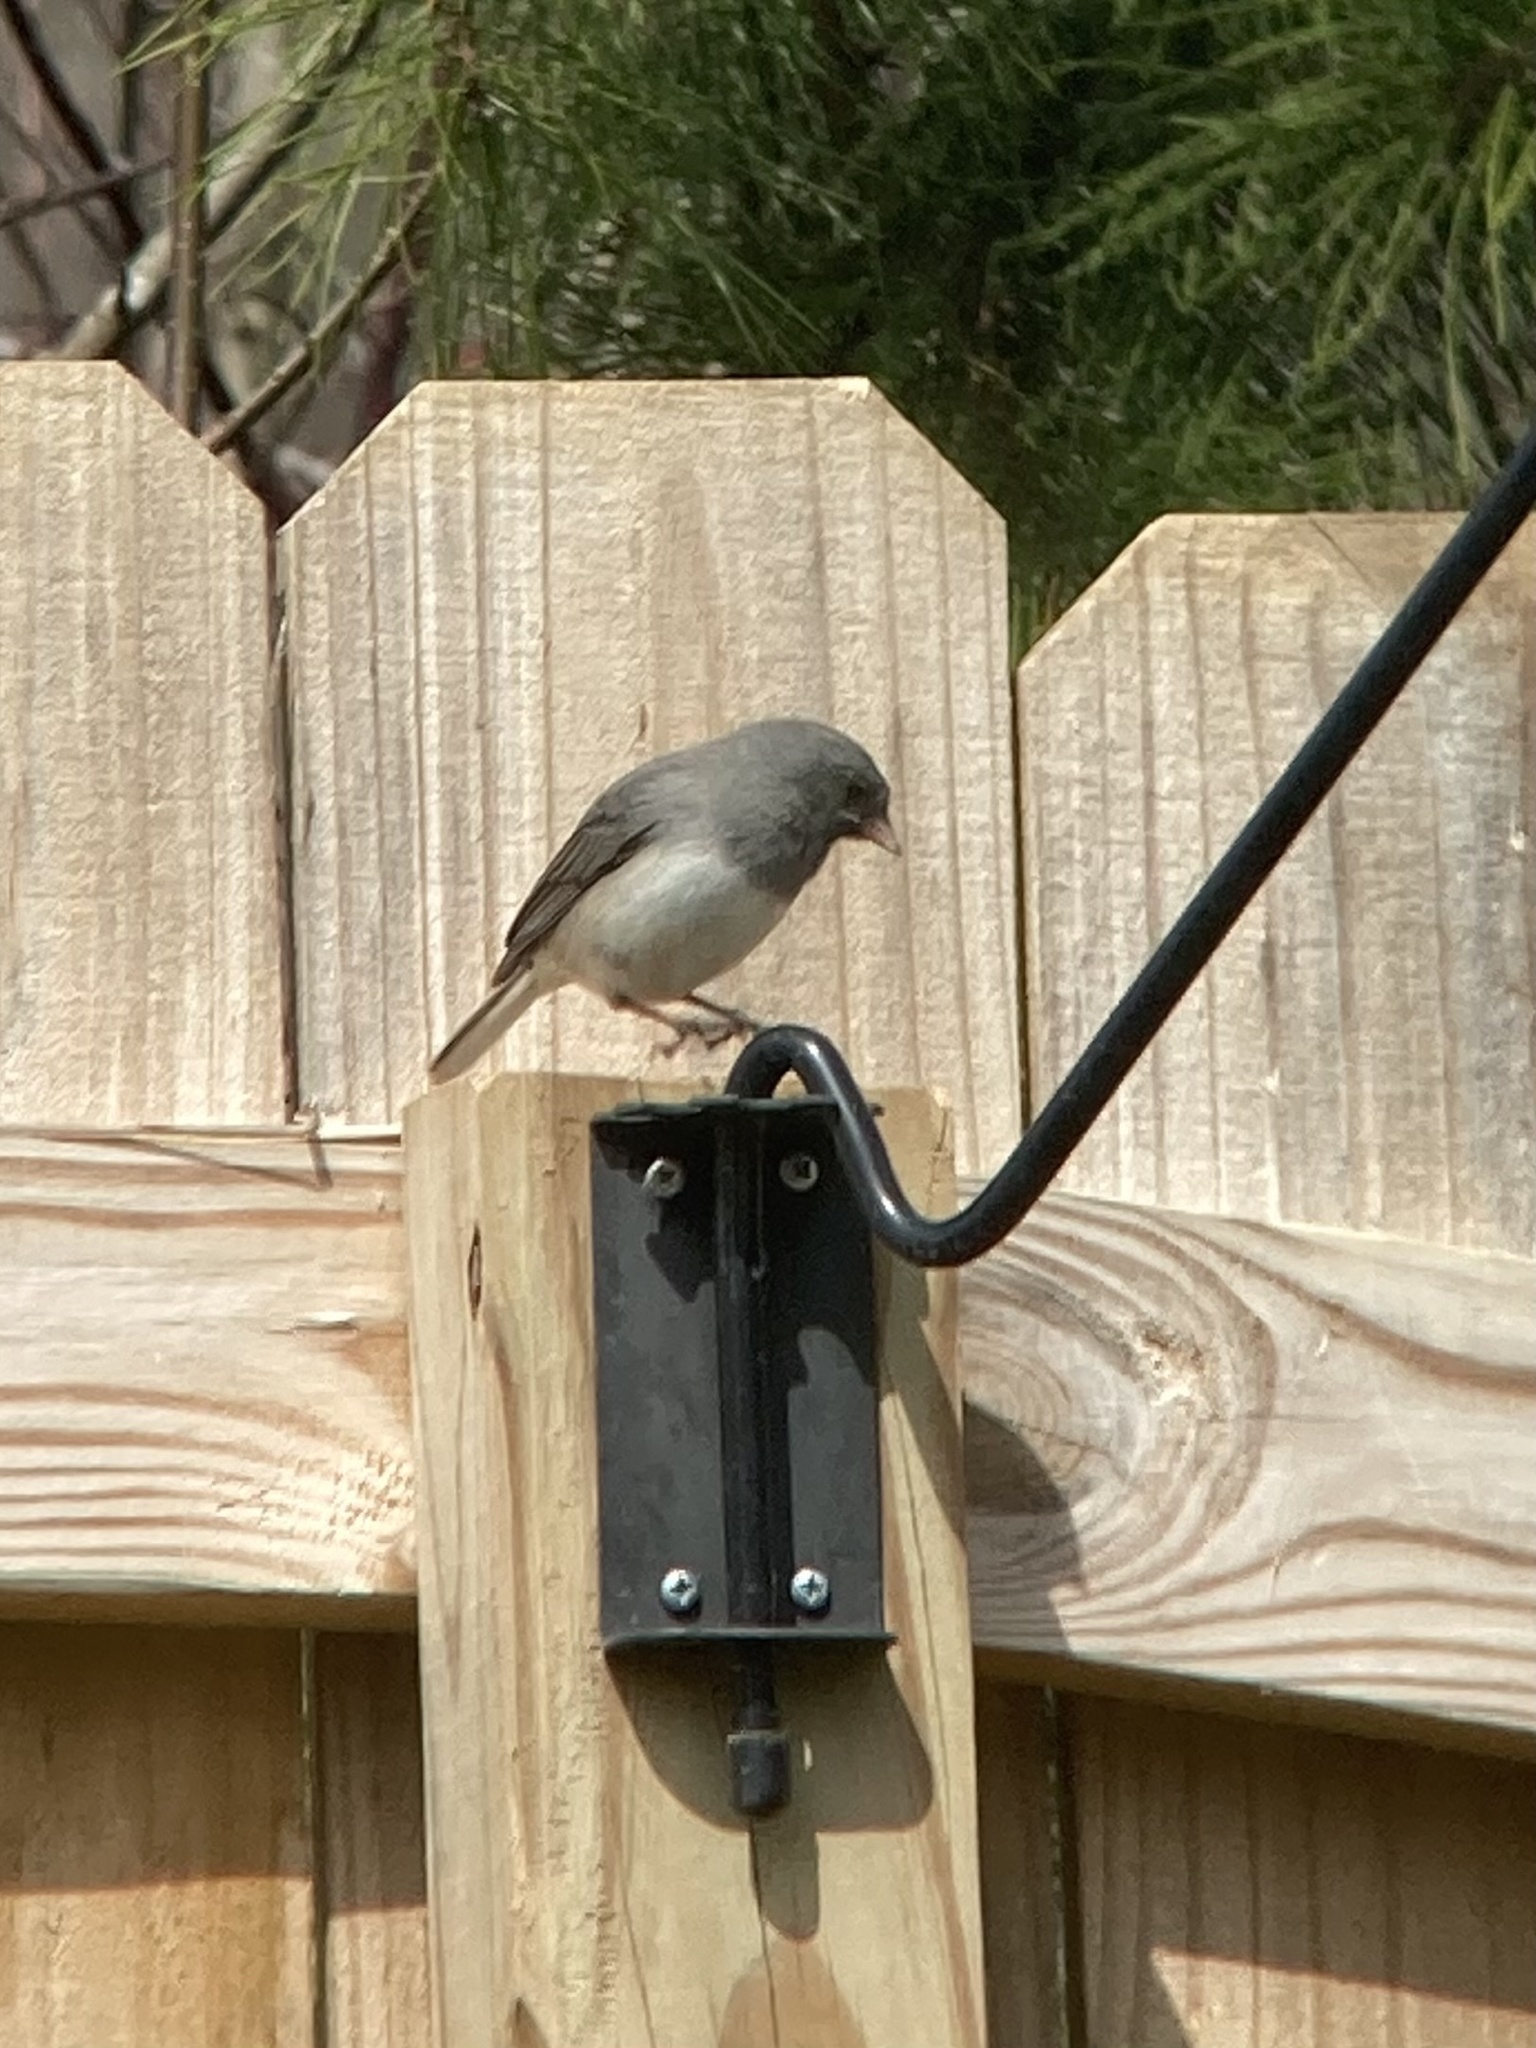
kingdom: Animalia
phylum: Chordata
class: Aves
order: Passeriformes
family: Passerellidae
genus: Junco
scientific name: Junco hyemalis
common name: Dark-eyed junco
